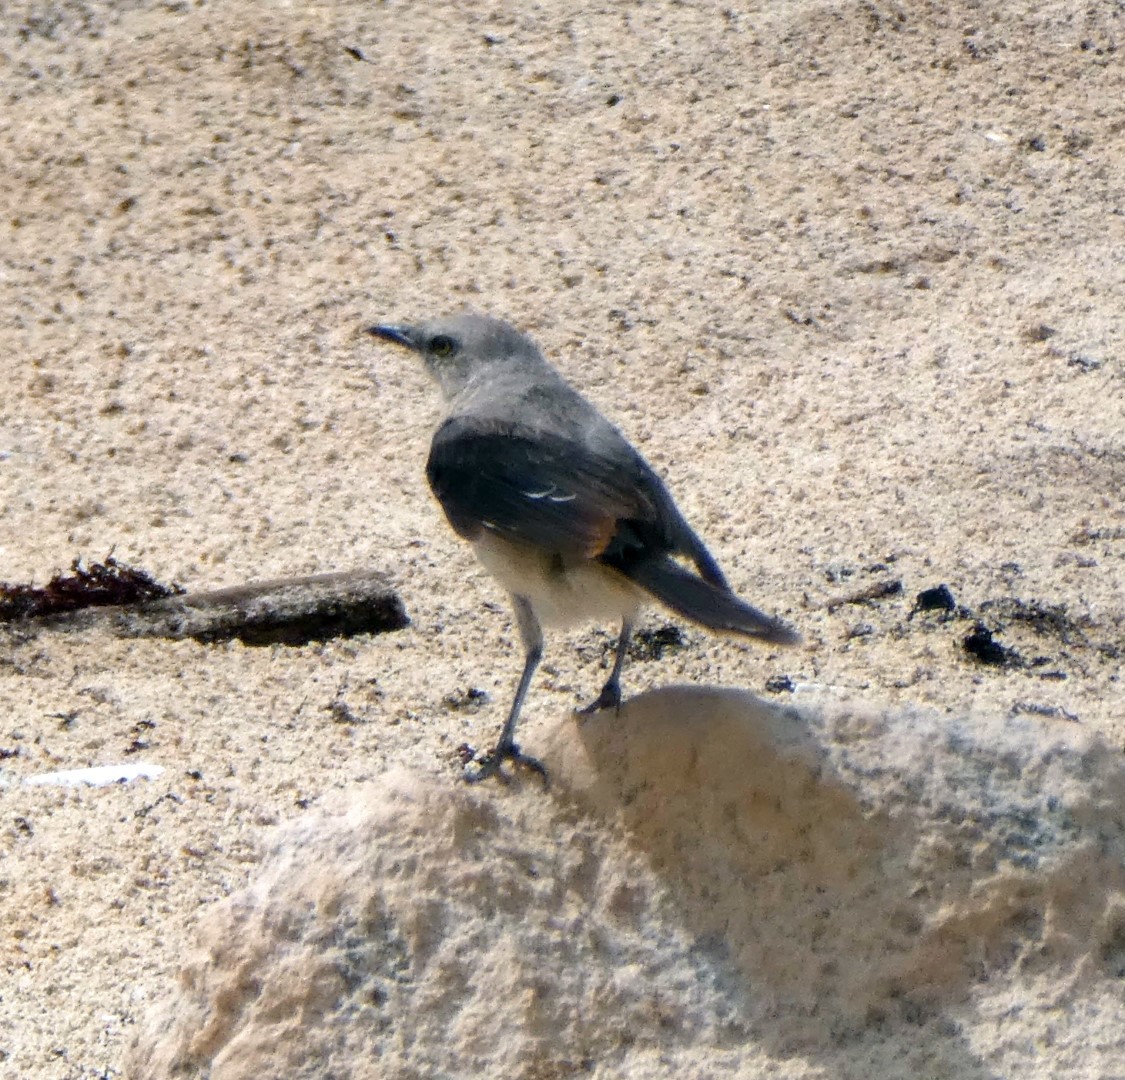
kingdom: Animalia
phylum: Chordata
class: Aves
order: Passeriformes
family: Mimidae
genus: Mimus
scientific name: Mimus gilvus
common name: Tropical mockingbird
